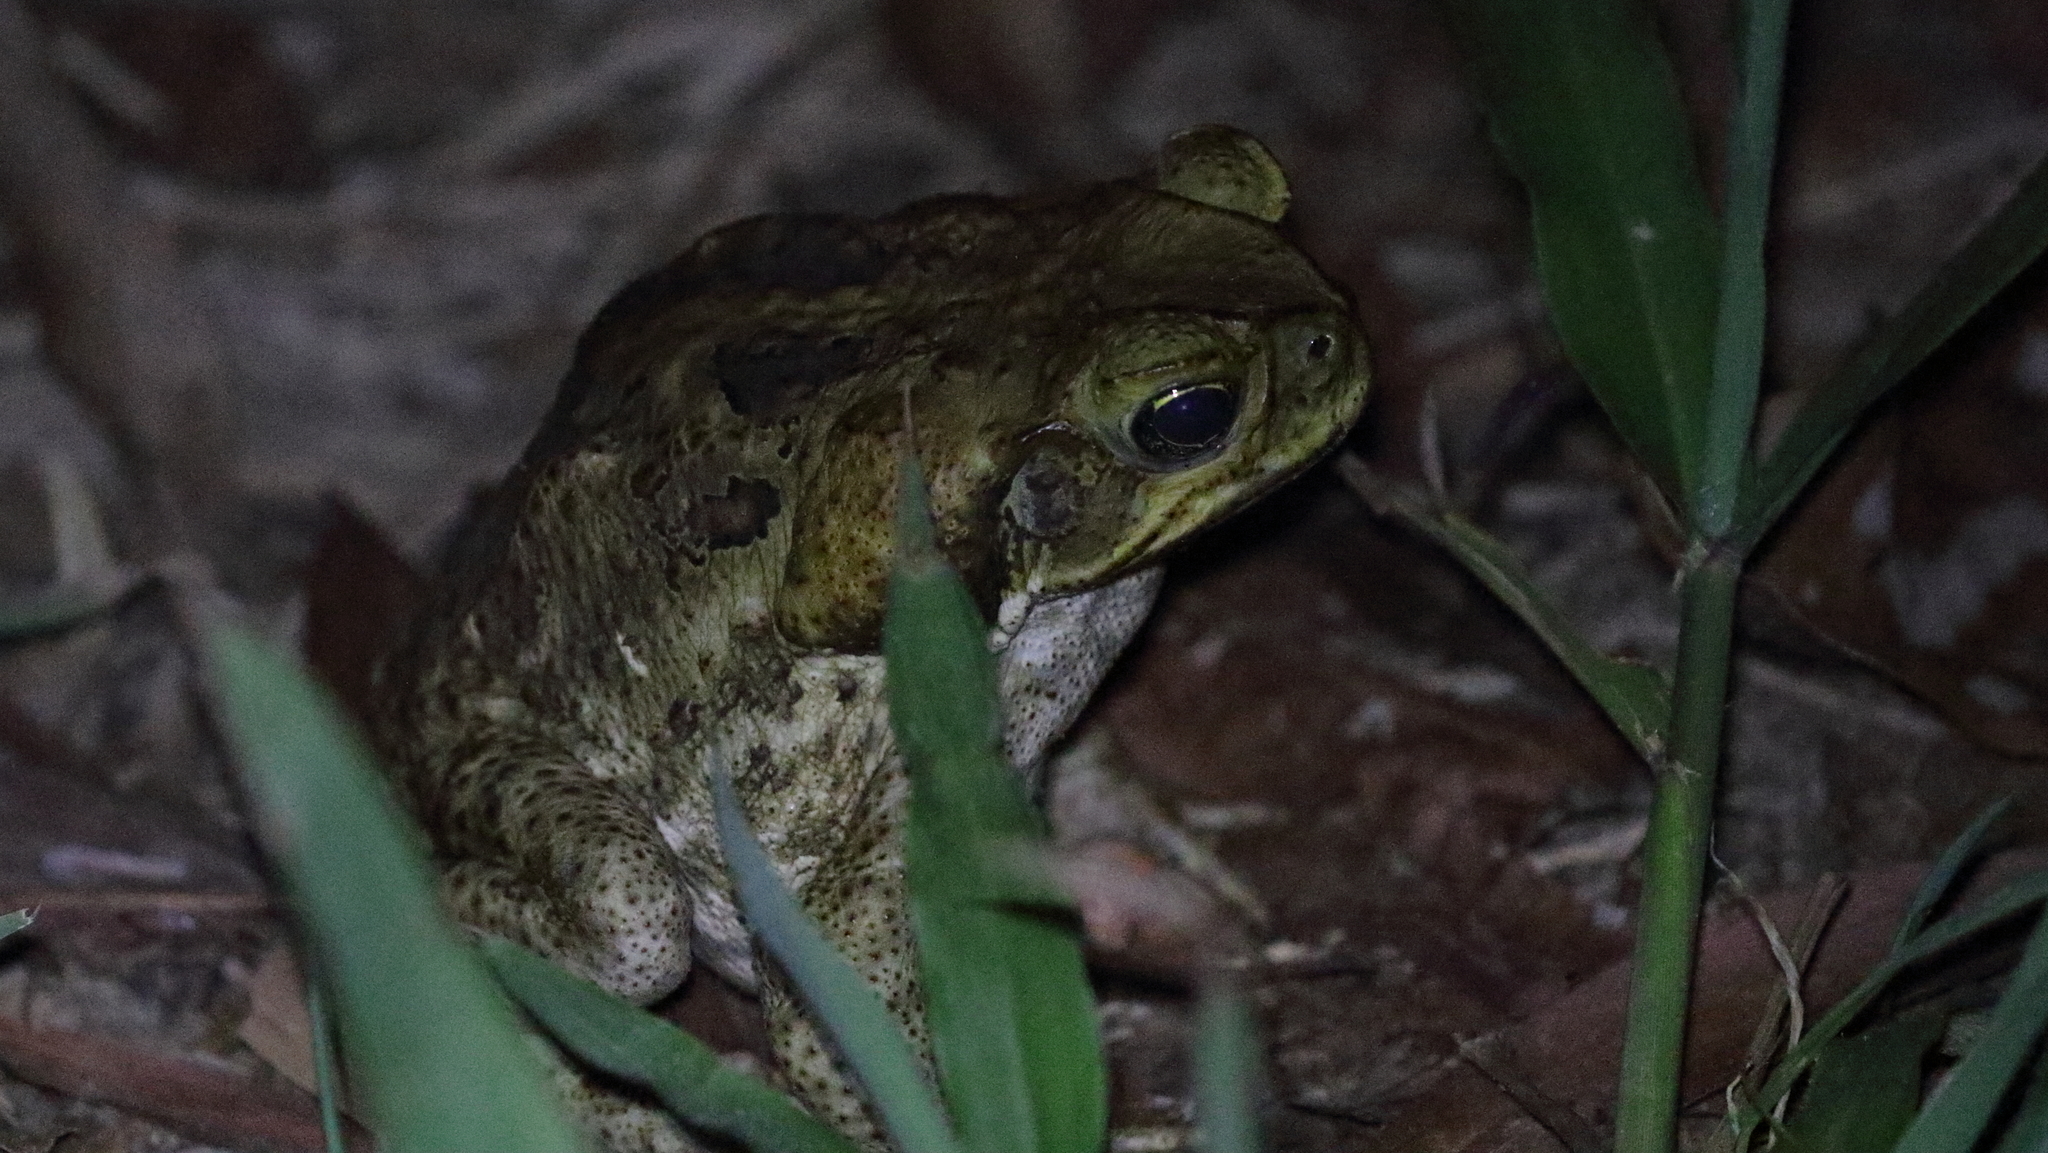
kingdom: Animalia
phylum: Chordata
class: Amphibia
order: Anura
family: Bufonidae
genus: Rhinella
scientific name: Rhinella marina
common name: Cane toad
